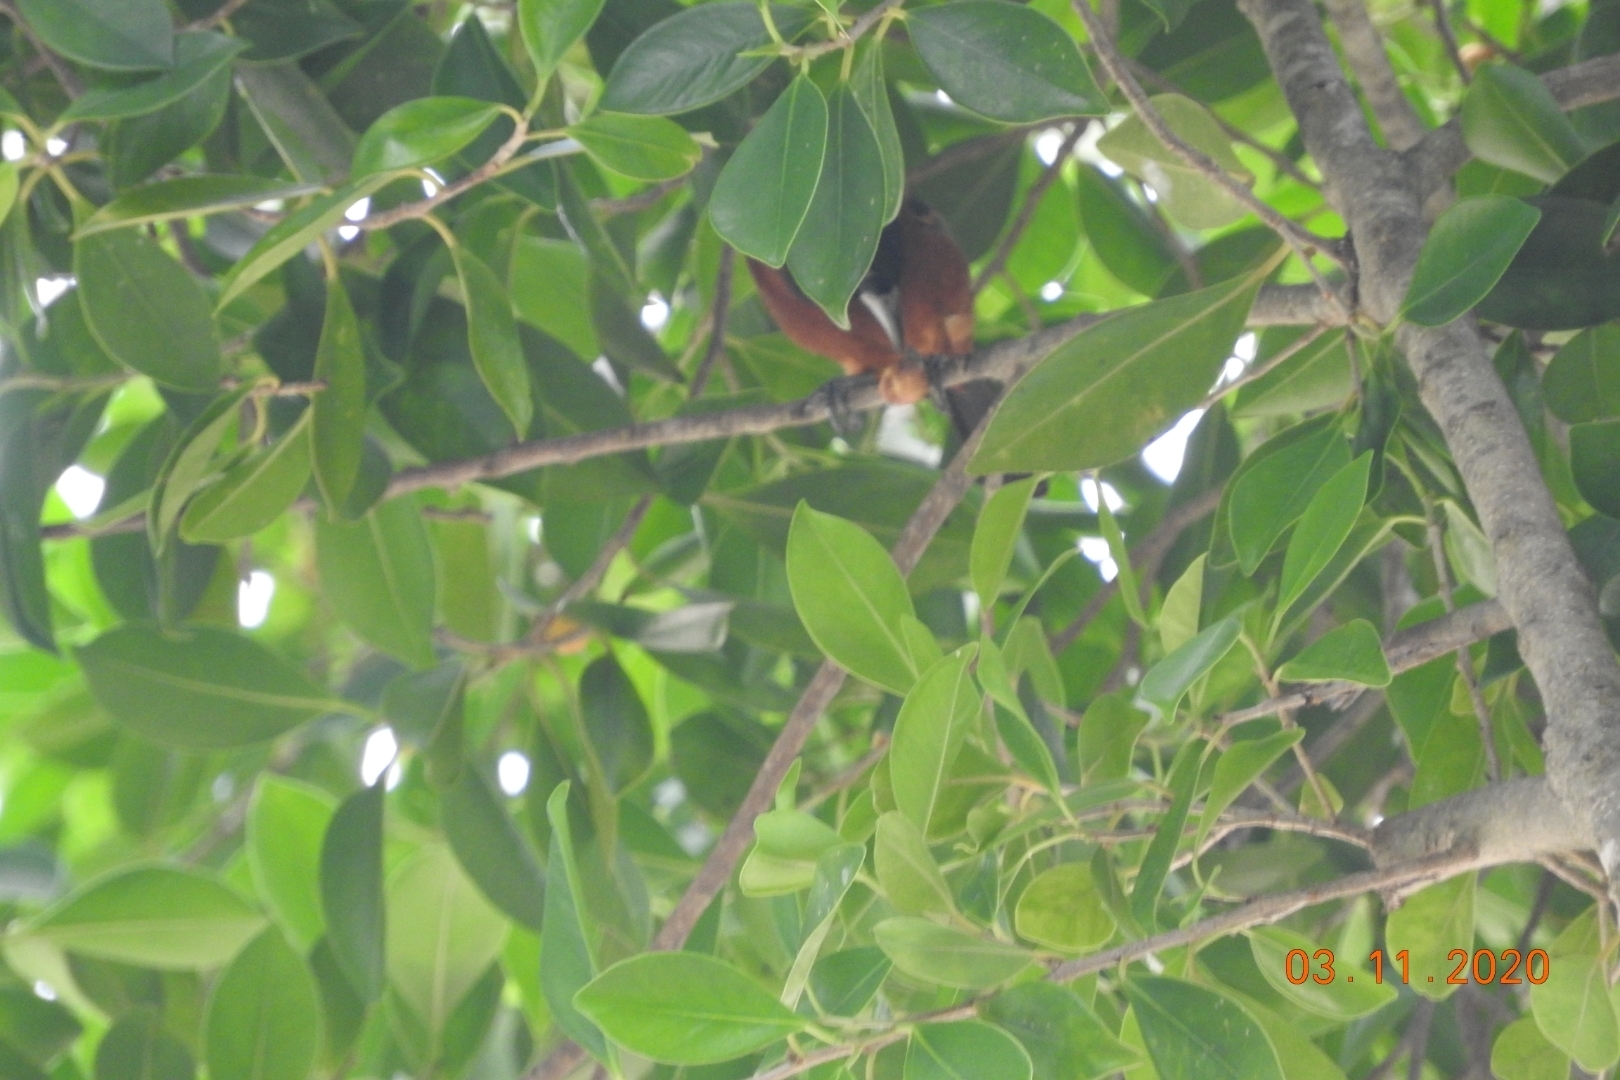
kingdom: Animalia
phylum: Chordata
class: Aves
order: Passeriformes
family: Icteridae
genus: Icterus
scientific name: Icterus spurius
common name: Orchard oriole
